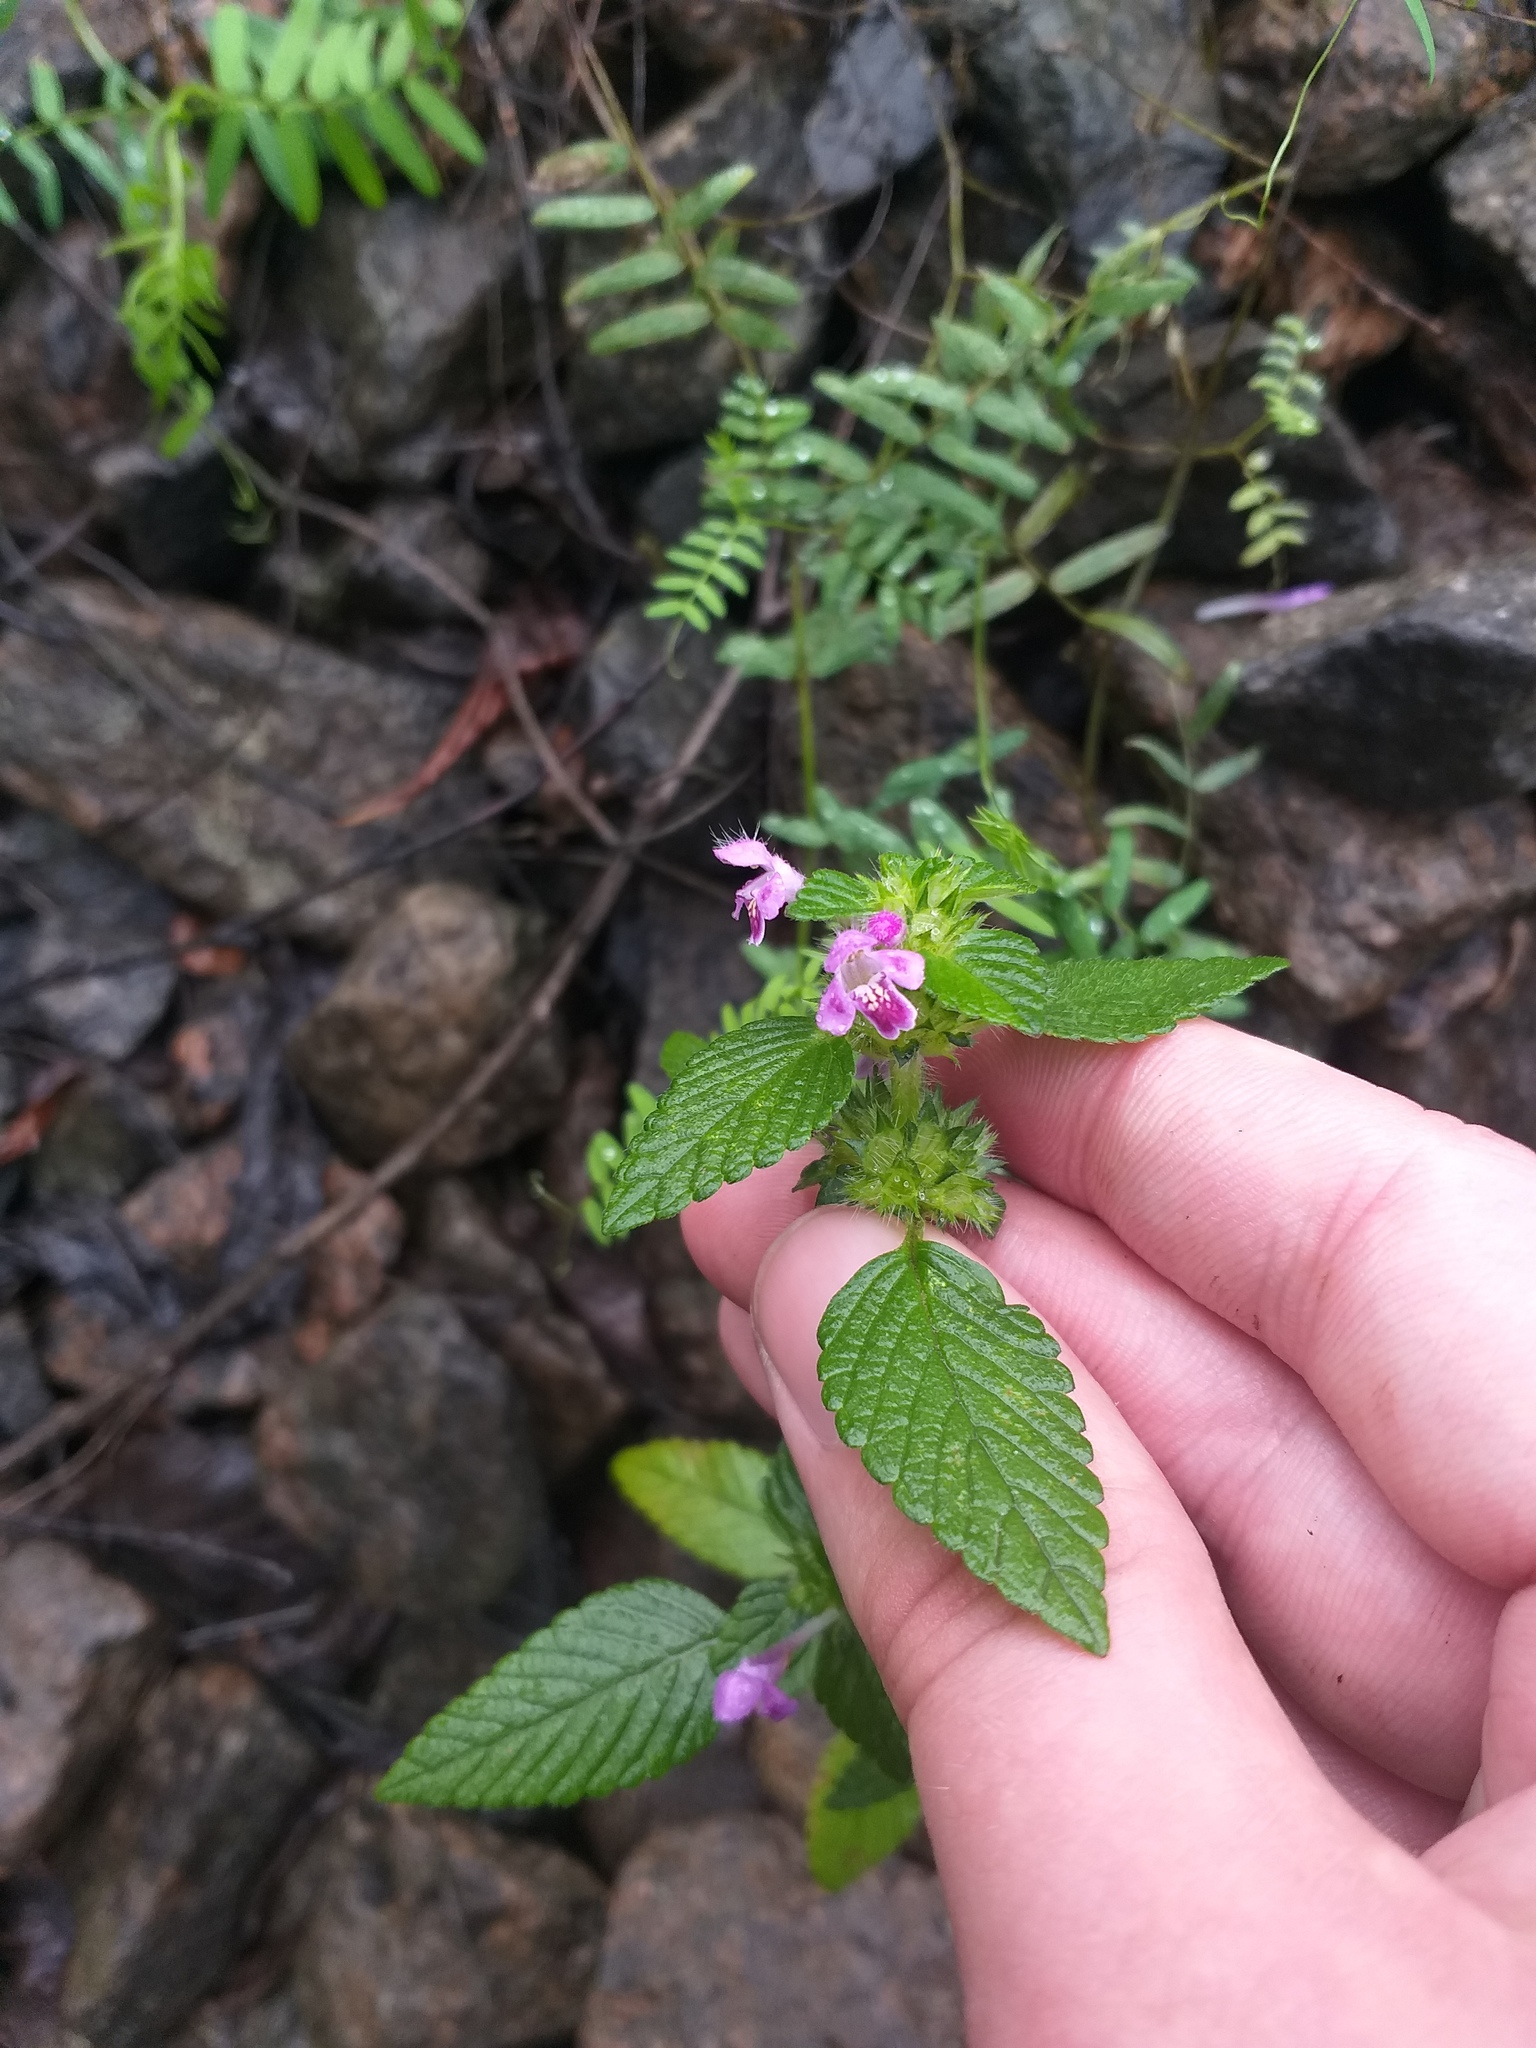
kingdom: Plantae
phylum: Tracheophyta
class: Magnoliopsida
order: Lamiales
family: Lamiaceae
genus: Galeopsis
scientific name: Galeopsis bifida
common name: Bifid hemp-nettle
